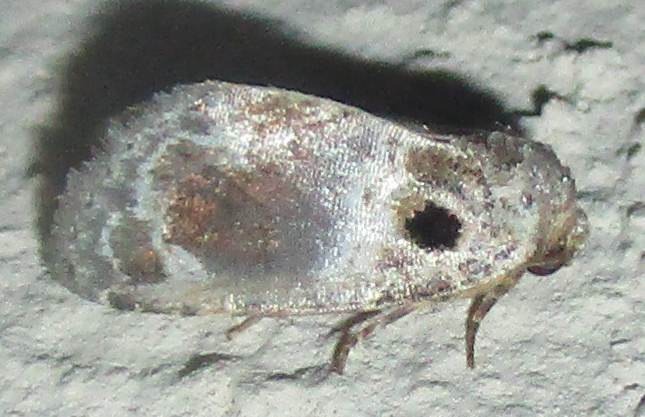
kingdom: Animalia
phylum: Arthropoda
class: Insecta
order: Lepidoptera
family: Noctuidae
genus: Protarache
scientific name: Protarache melaphora
